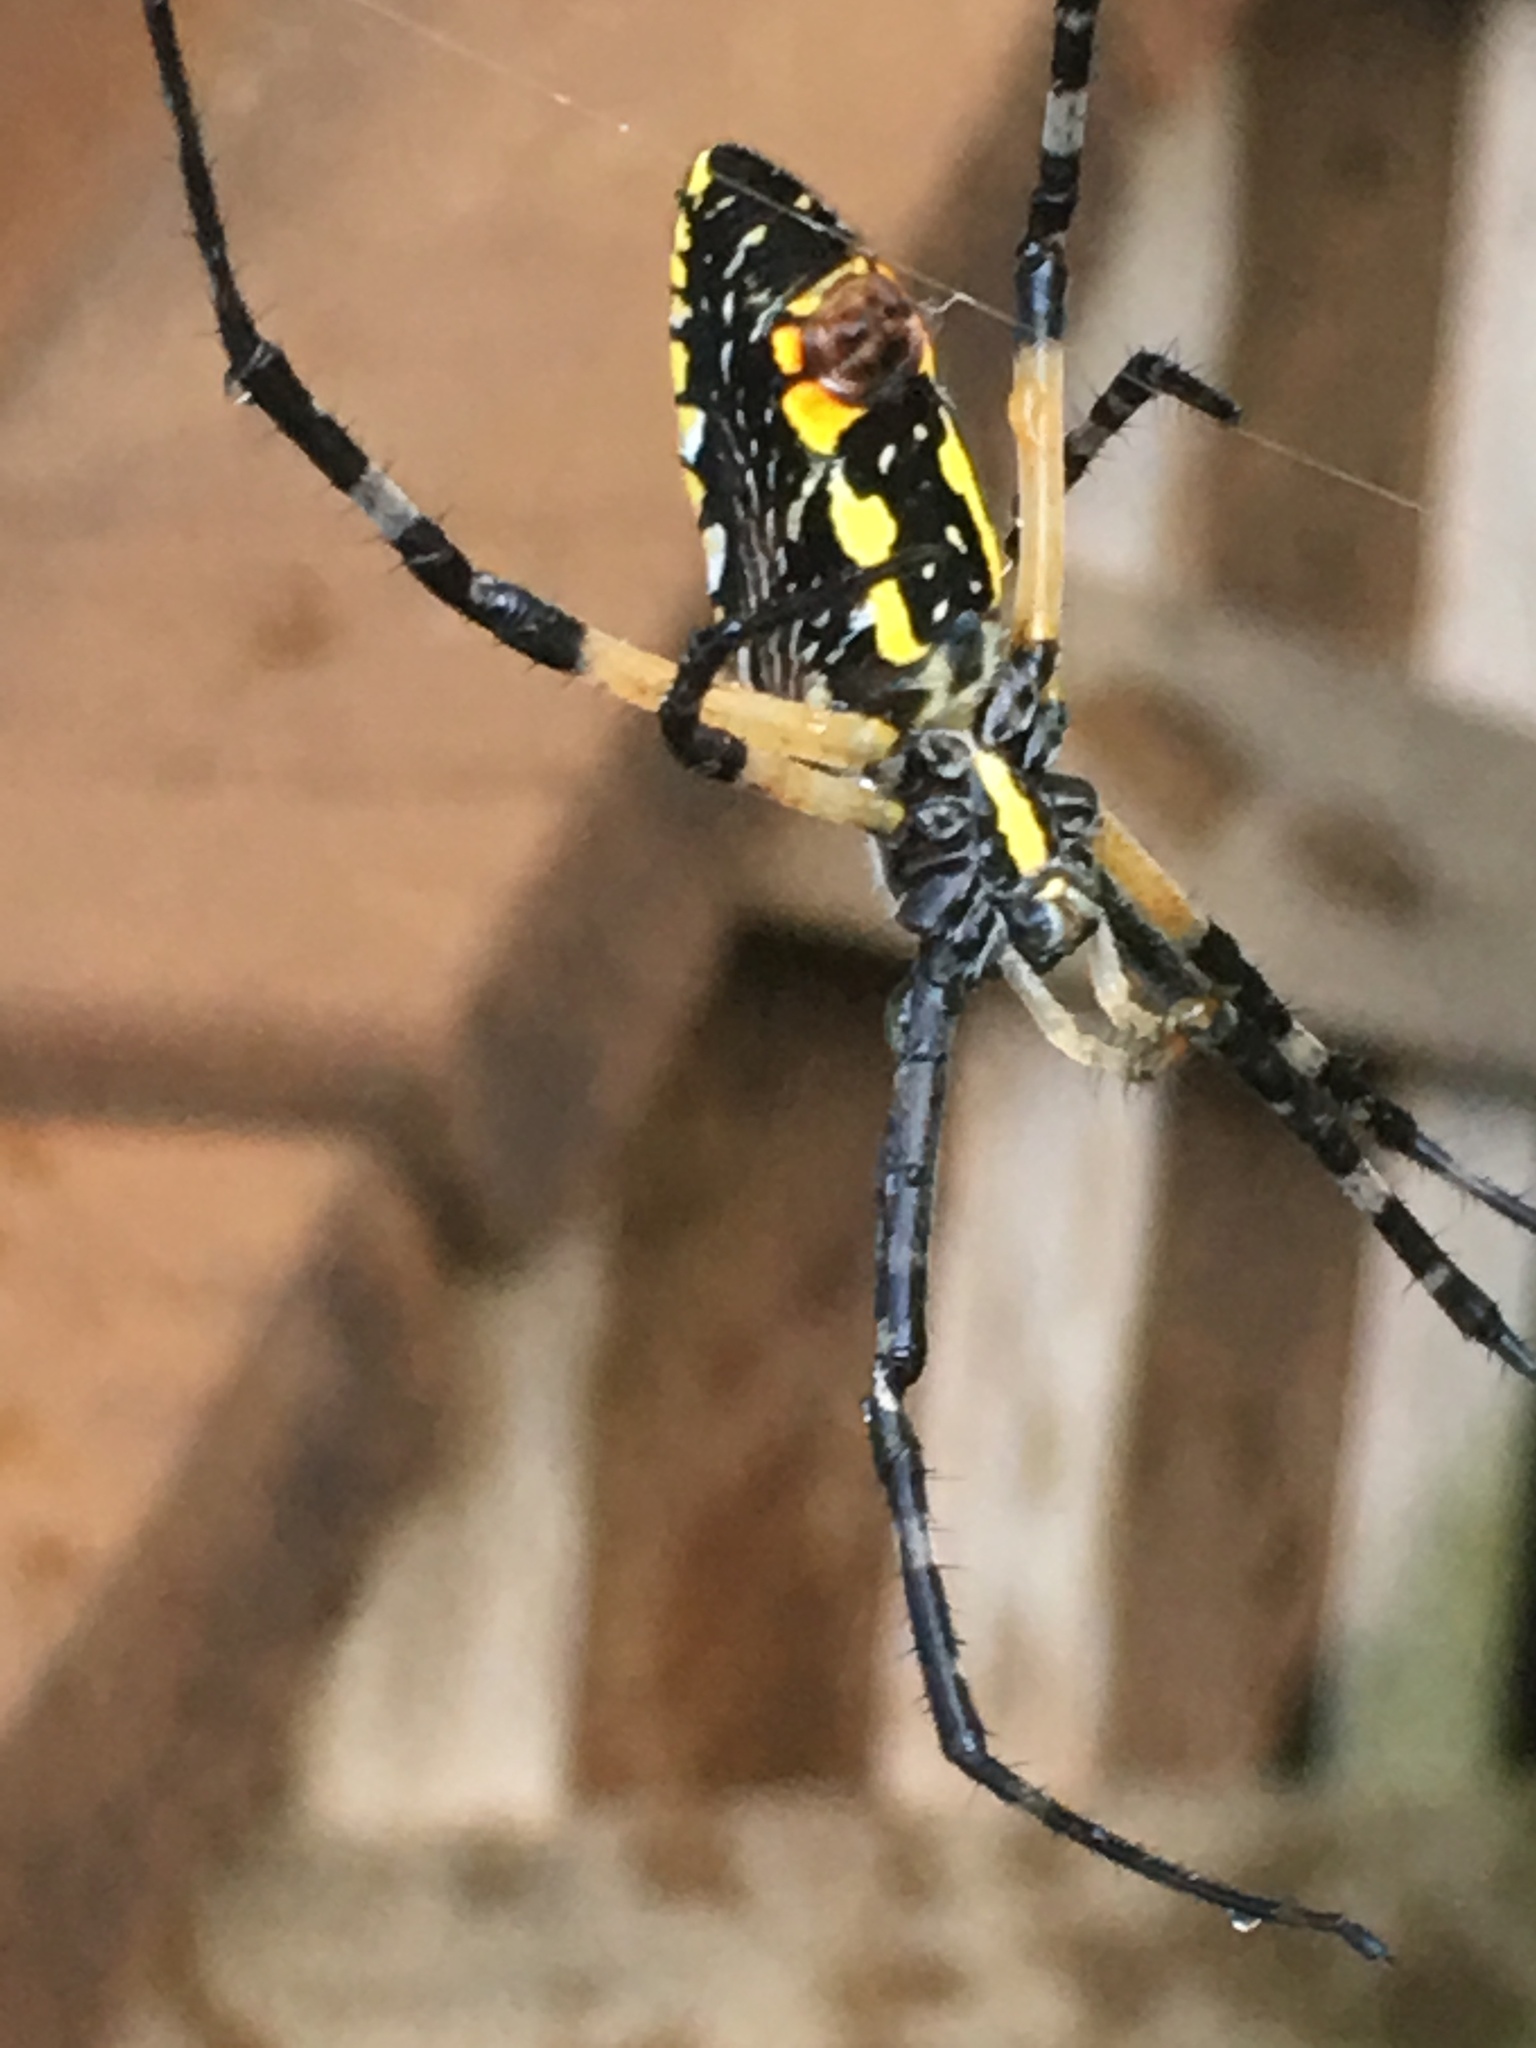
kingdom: Animalia
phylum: Arthropoda
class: Arachnida
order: Araneae
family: Araneidae
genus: Argiope
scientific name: Argiope aurantia
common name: Orb weavers
